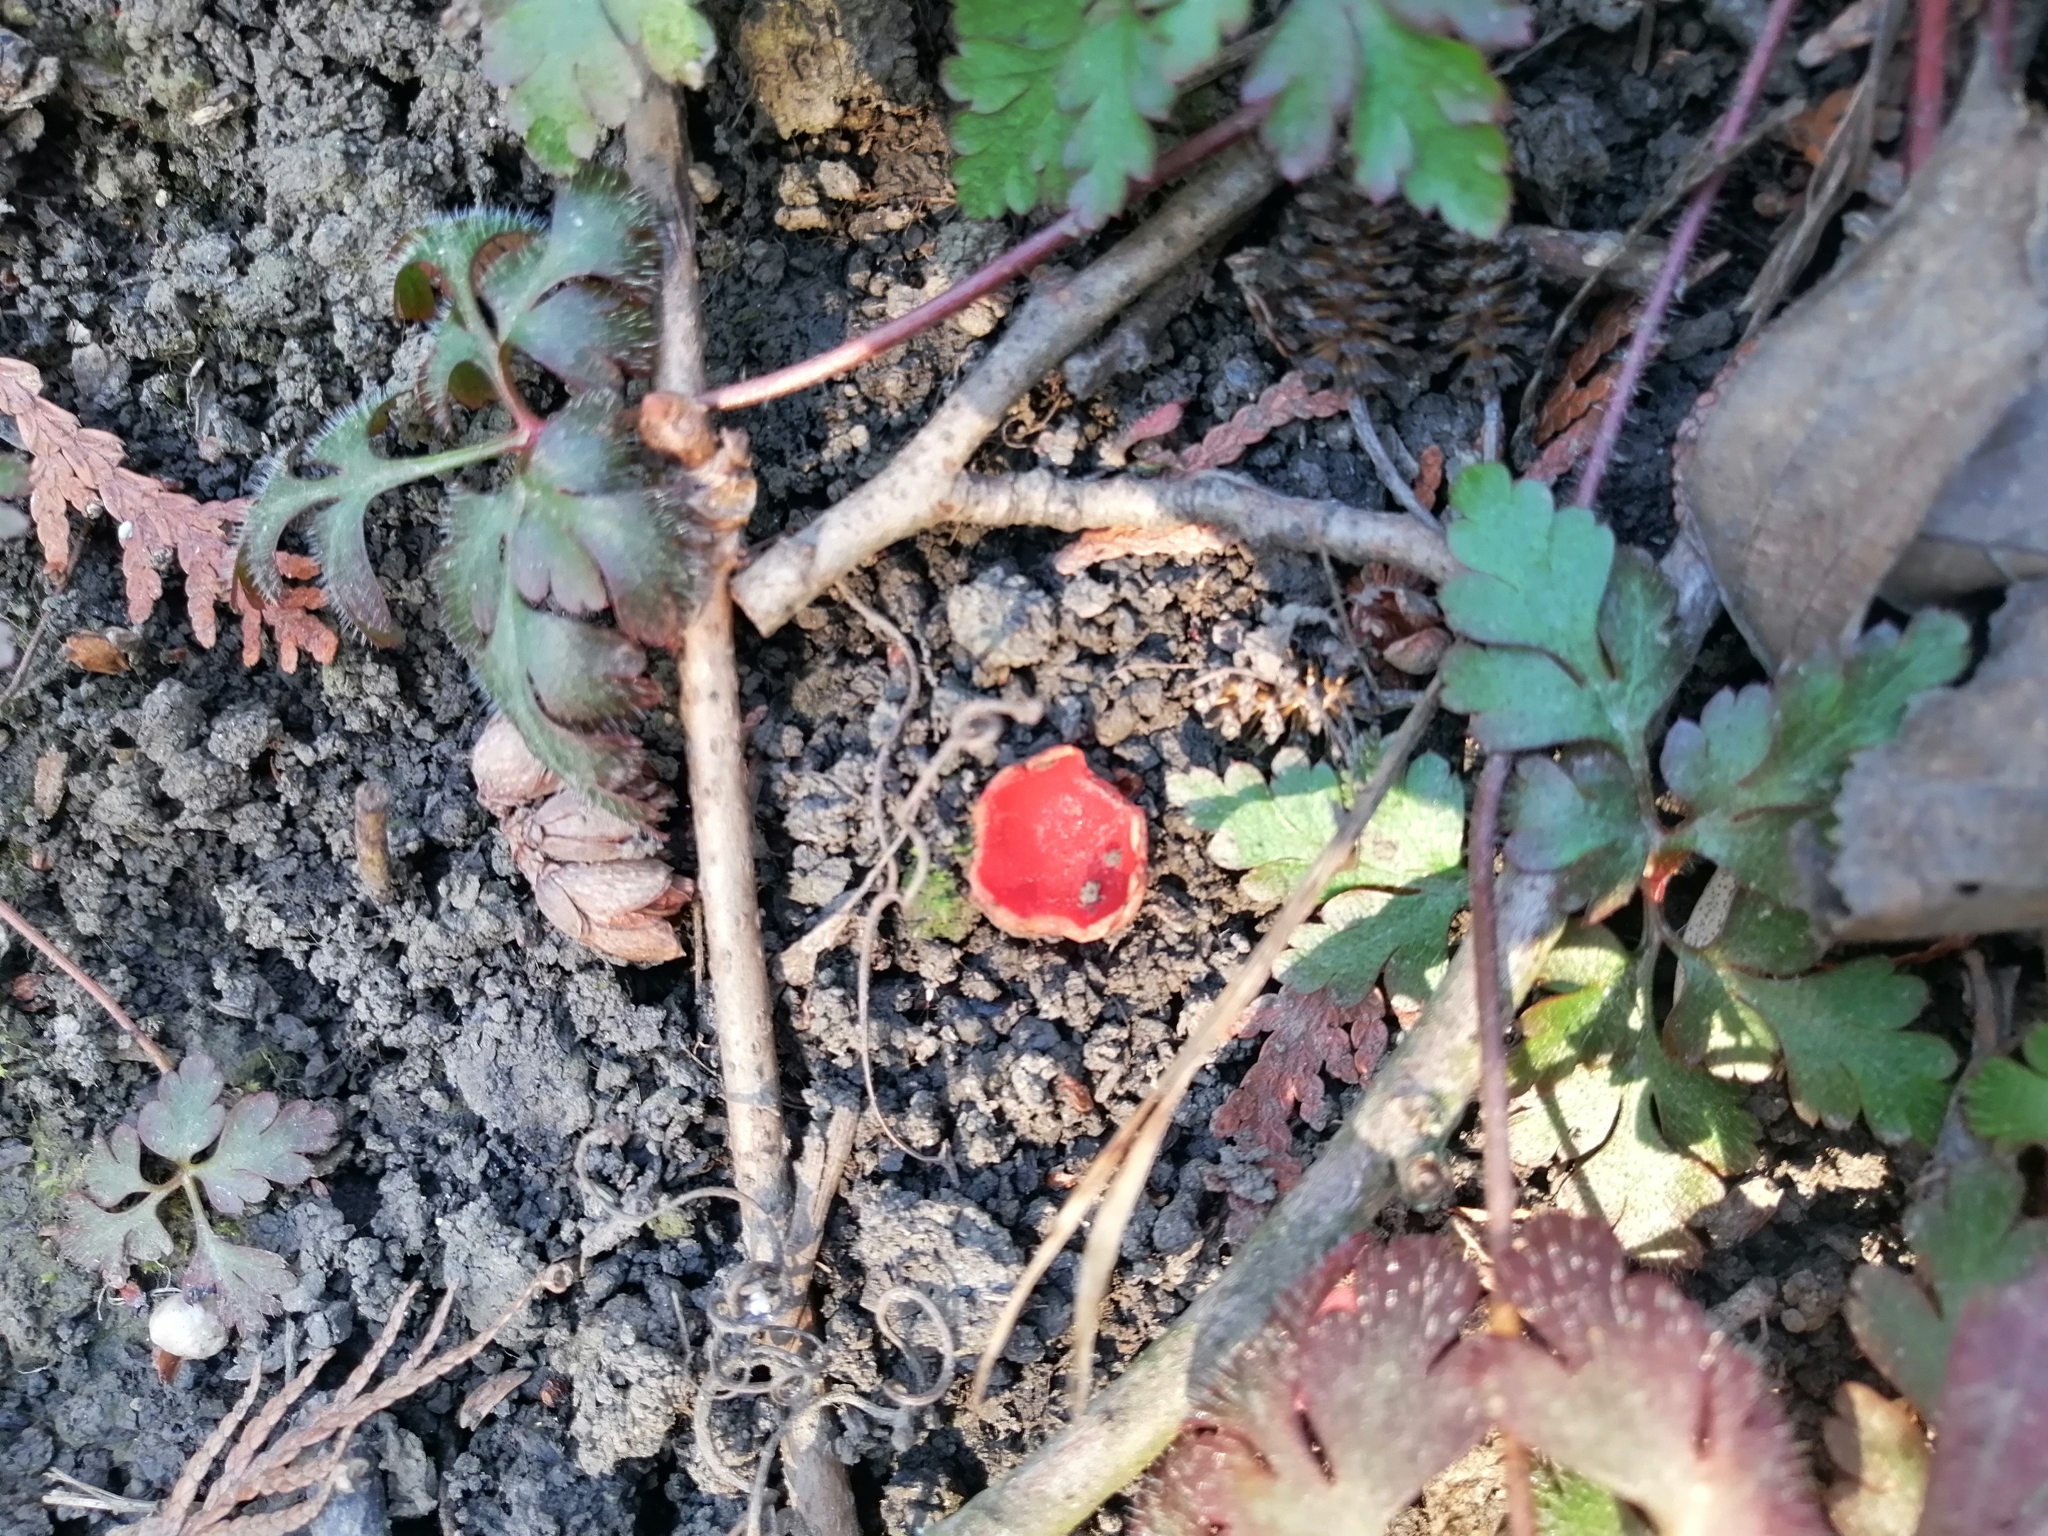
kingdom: Fungi
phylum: Ascomycota
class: Pezizomycetes
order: Pezizales
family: Sarcoscyphaceae
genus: Sarcoscypha
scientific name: Sarcoscypha
